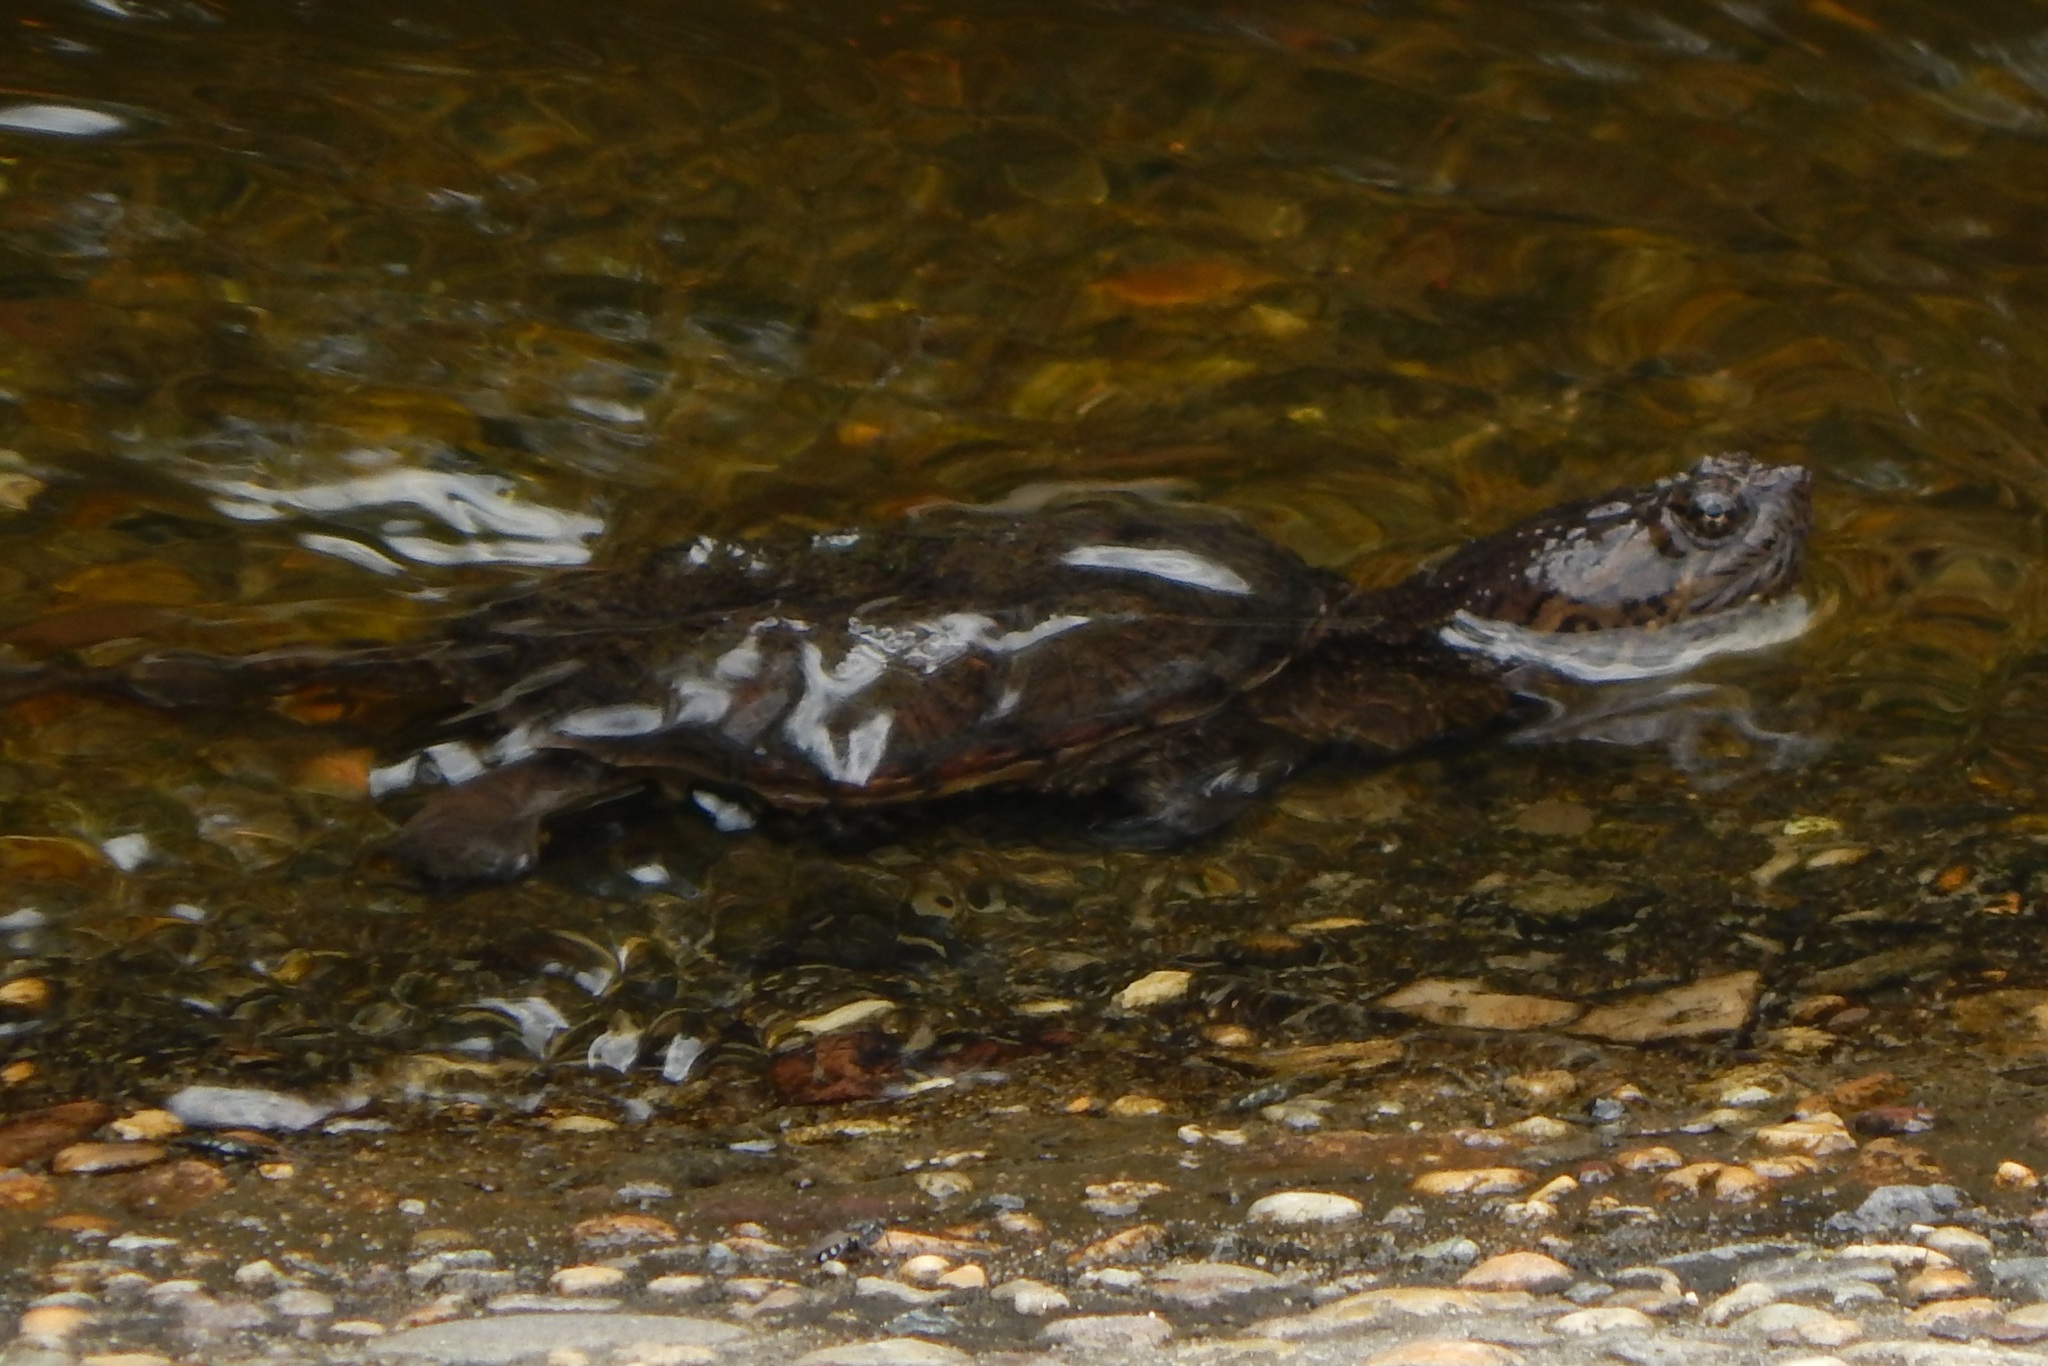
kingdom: Animalia
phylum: Chordata
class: Testudines
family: Chelydridae
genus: Chelydra
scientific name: Chelydra serpentina
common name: Common snapping turtle
